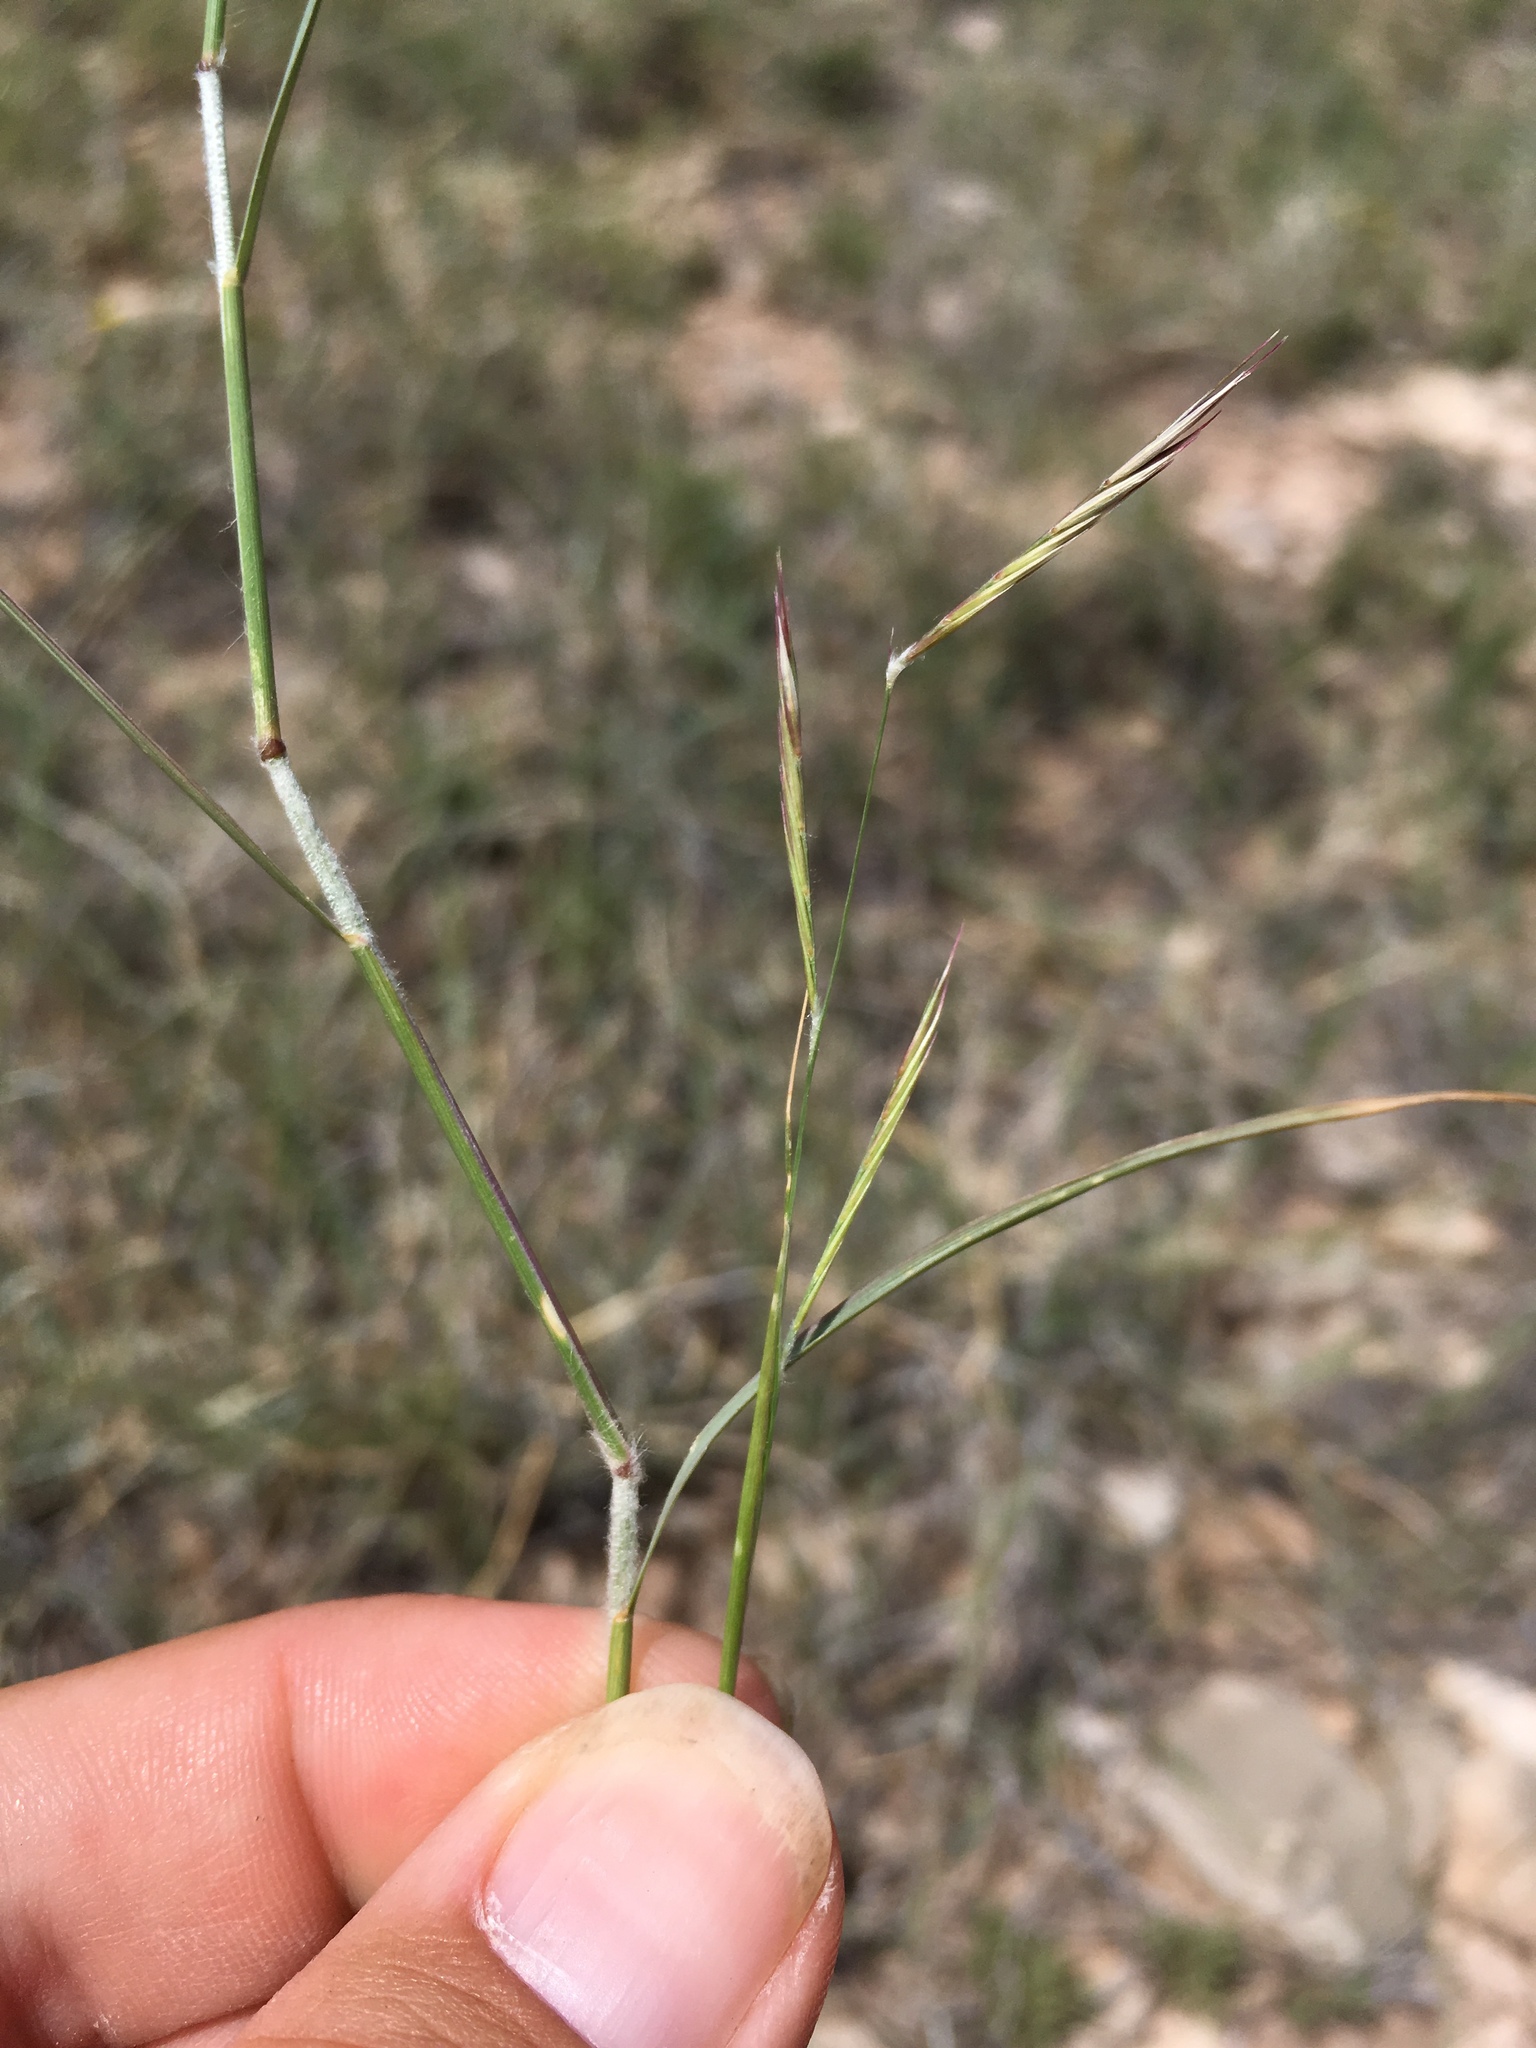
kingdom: Plantae
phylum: Tracheophyta
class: Liliopsida
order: Poales
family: Poaceae
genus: Bouteloua
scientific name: Bouteloua eriopoda
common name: Woolly foot grama
